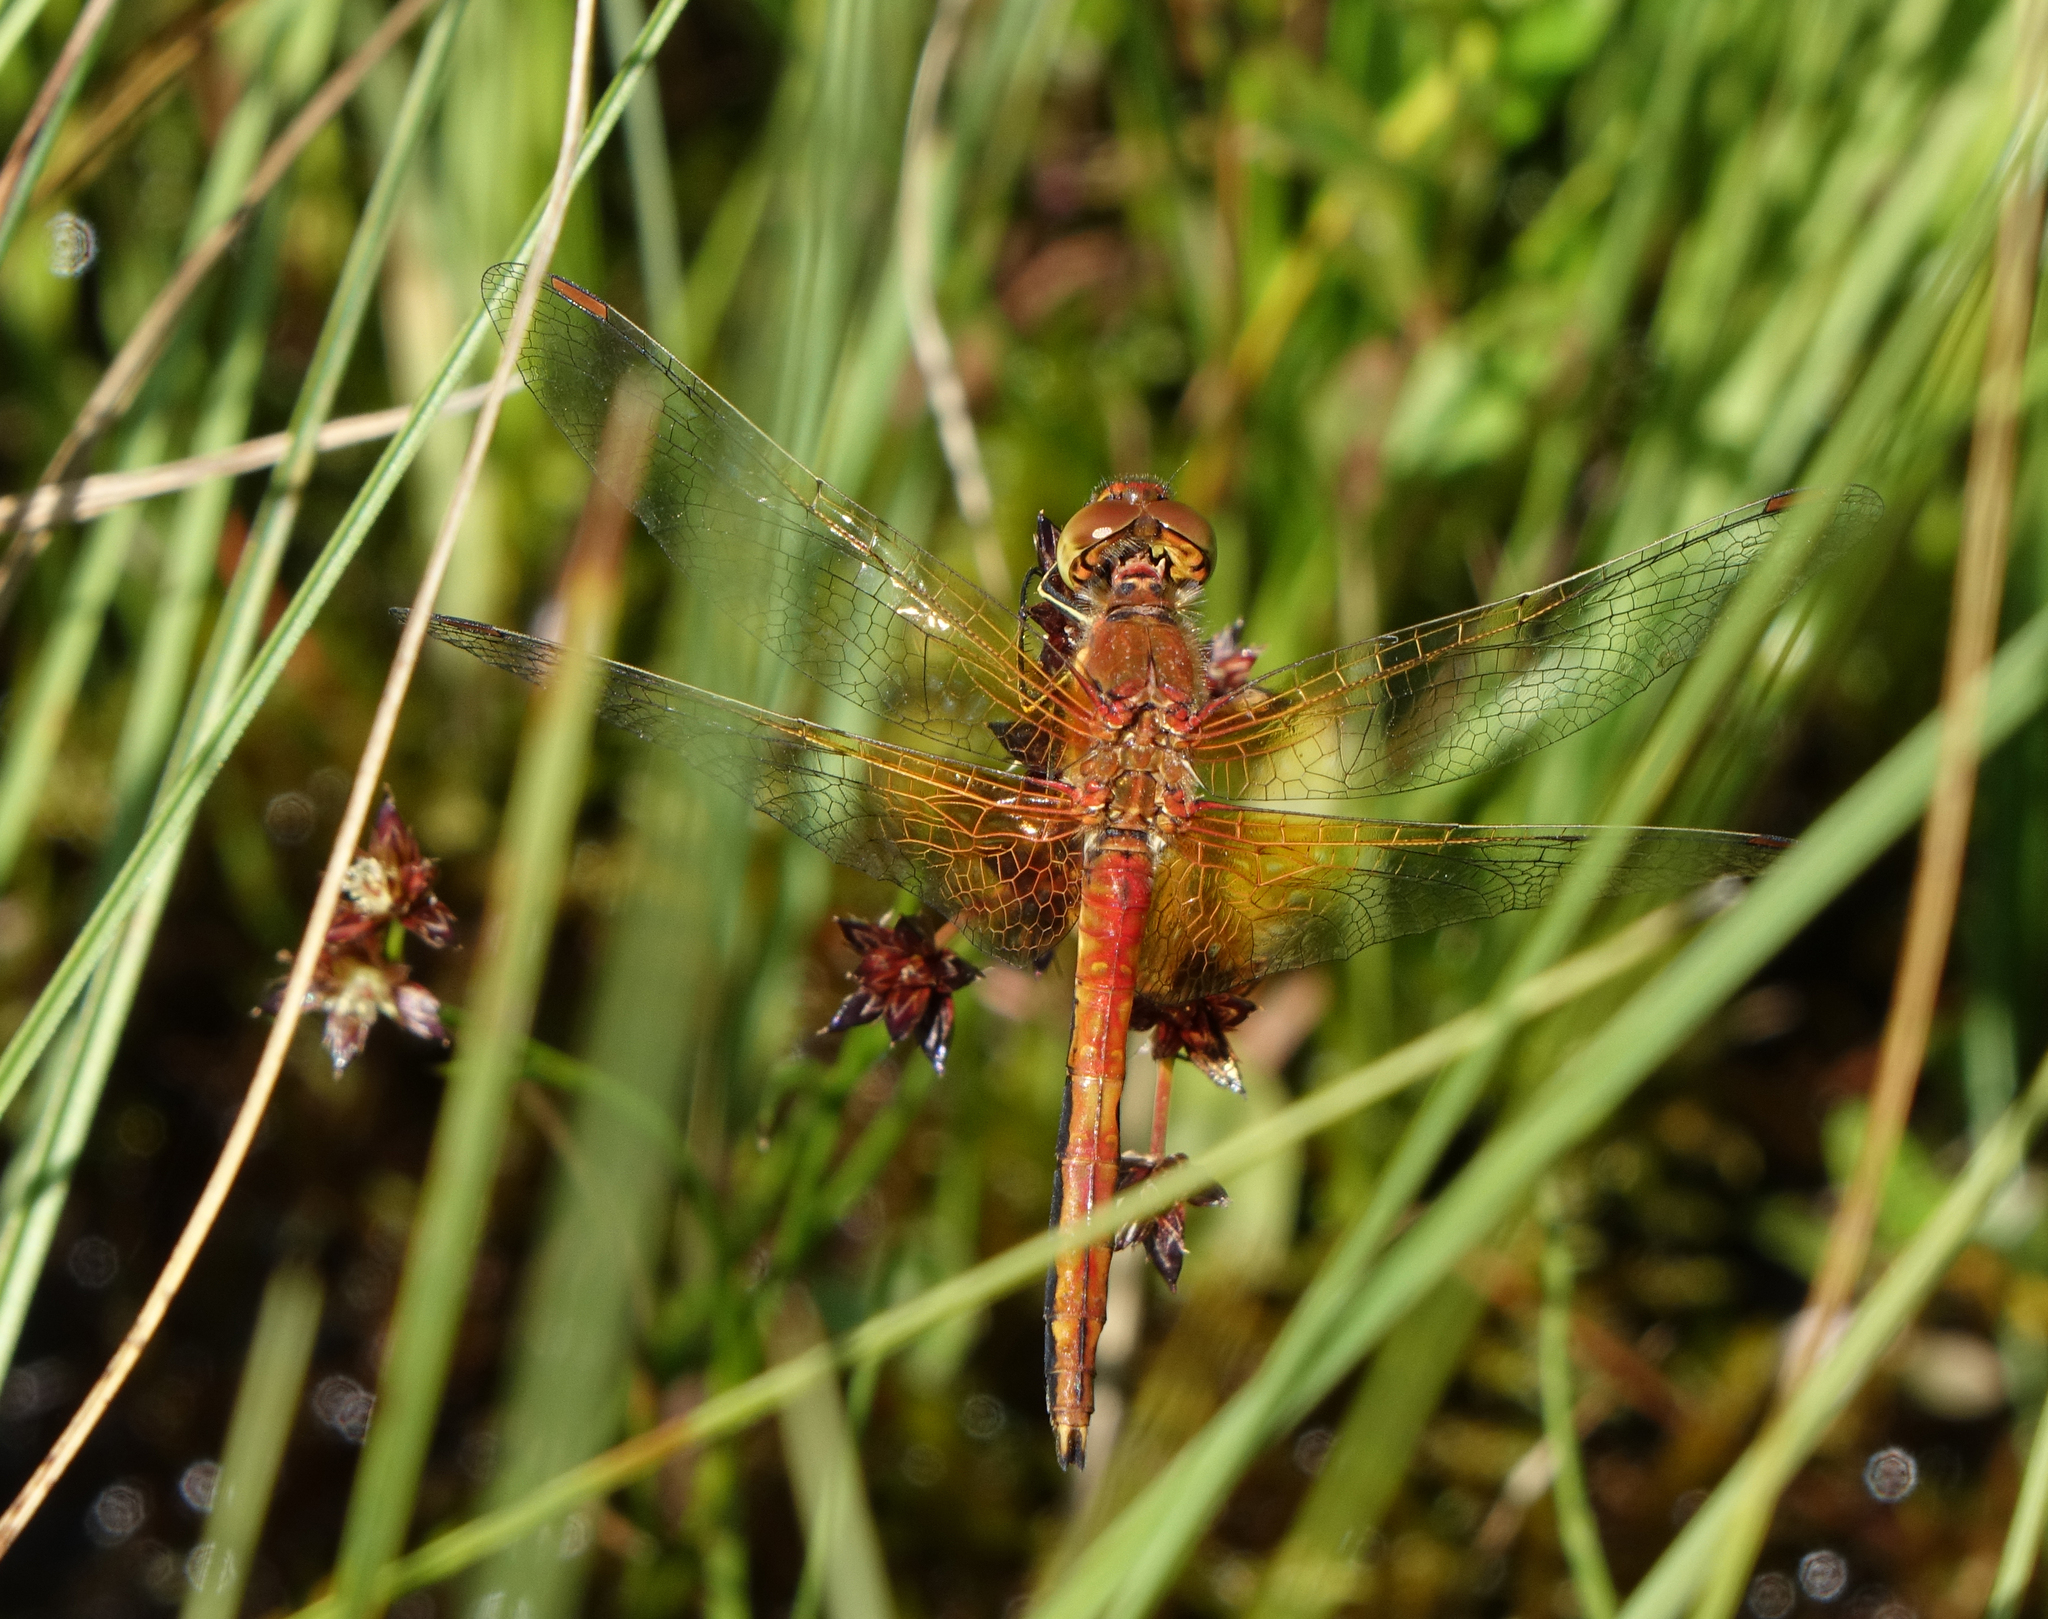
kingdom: Animalia
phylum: Arthropoda
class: Insecta
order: Odonata
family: Libellulidae
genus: Sympetrum
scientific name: Sympetrum flaveolum
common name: Yellow-winged darter
